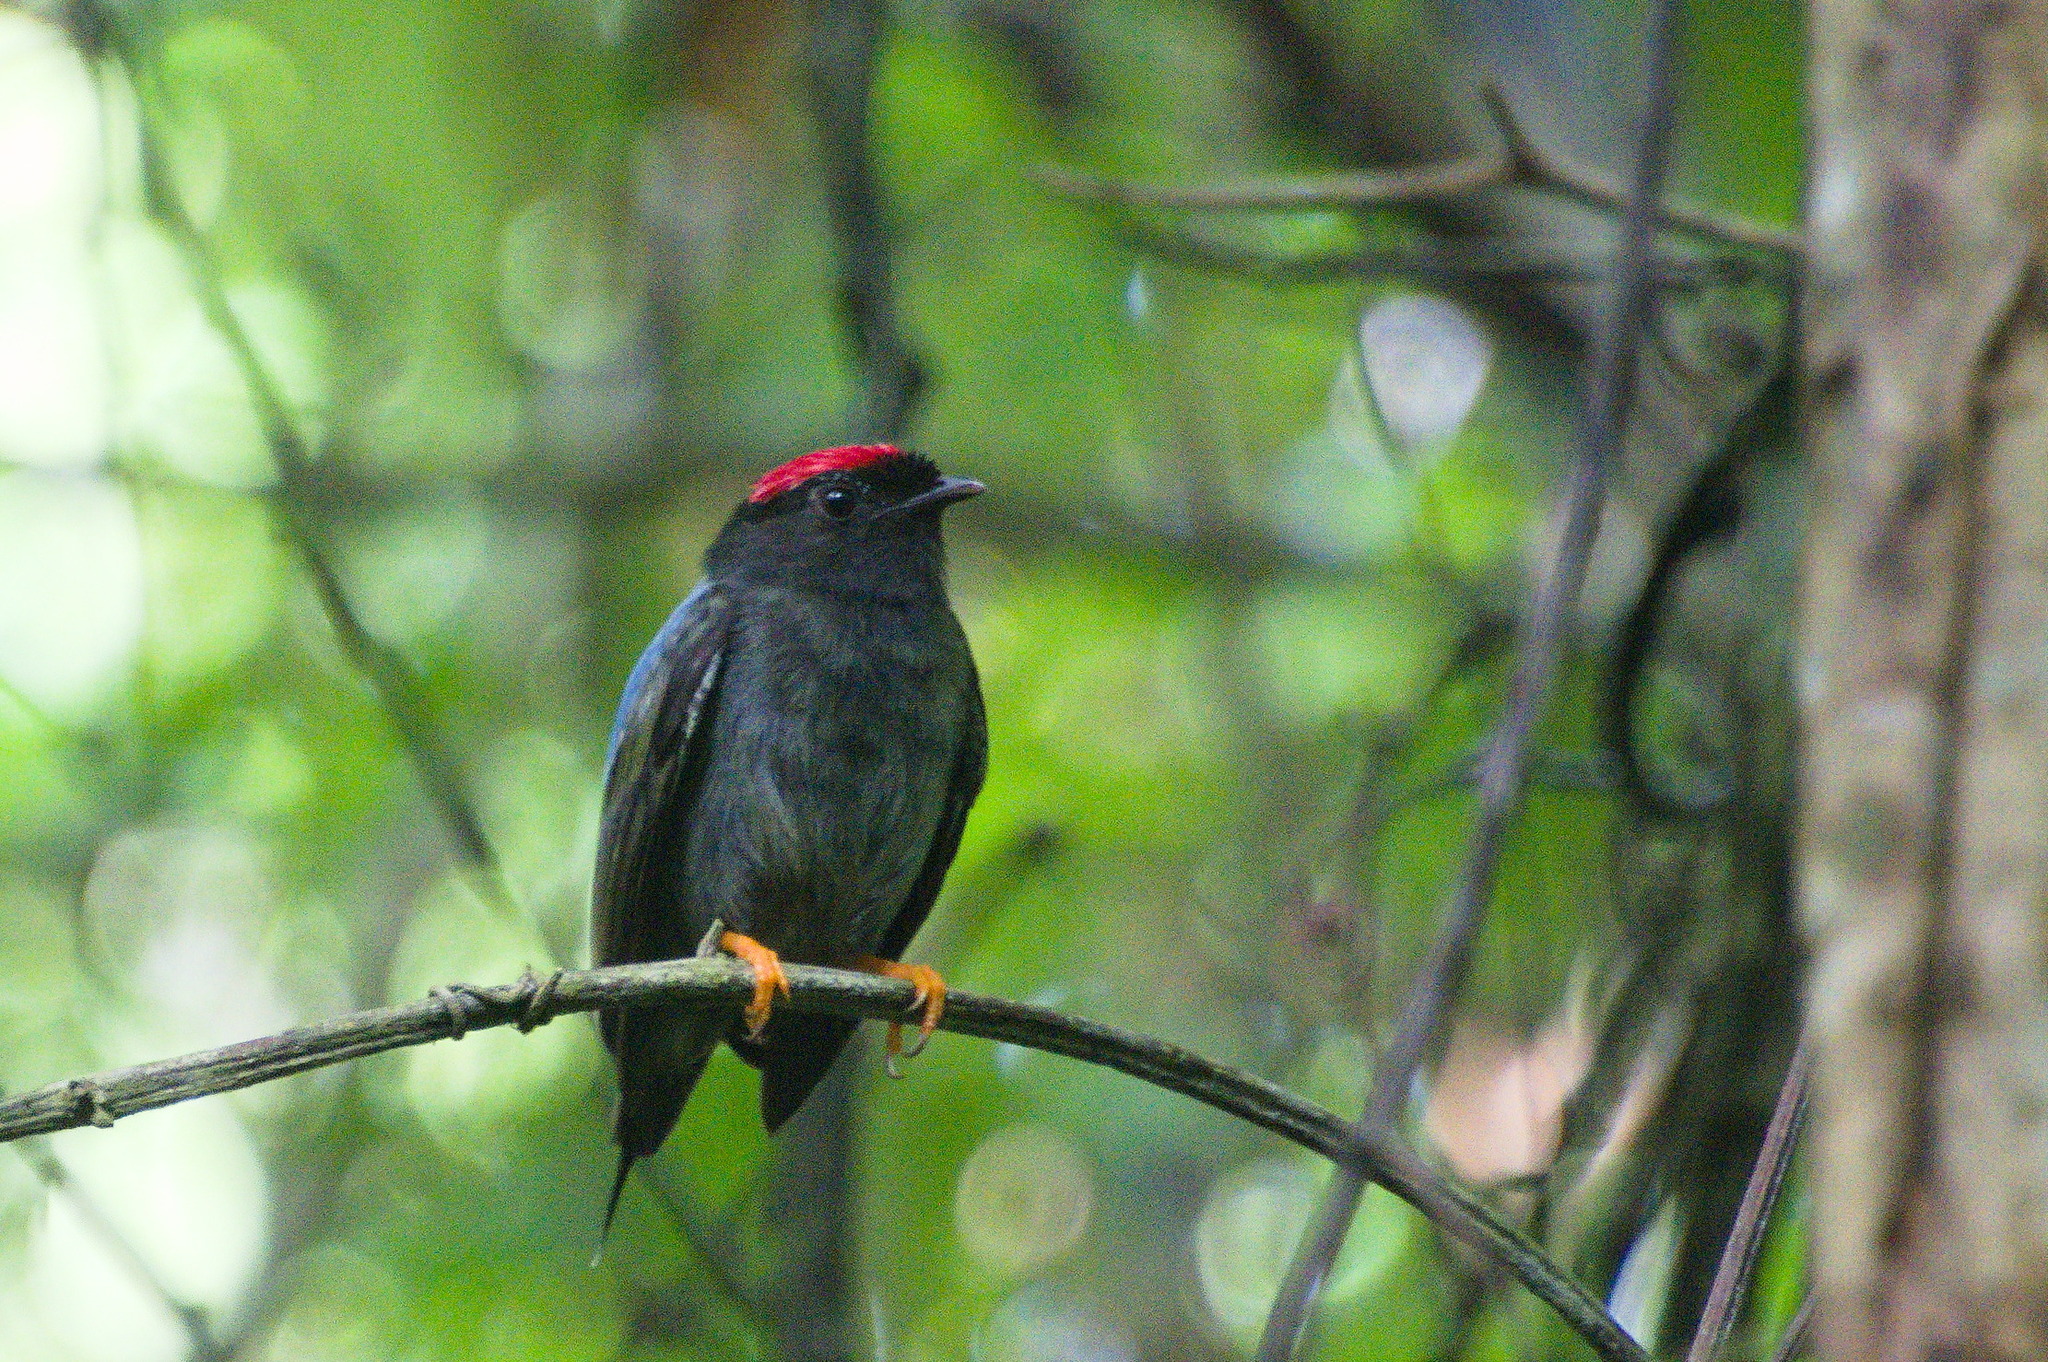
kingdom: Animalia
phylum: Chordata
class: Aves
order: Passeriformes
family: Pipridae
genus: Chiroxiphia
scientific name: Chiroxiphia lanceolata
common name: Lance-tailed manakin
